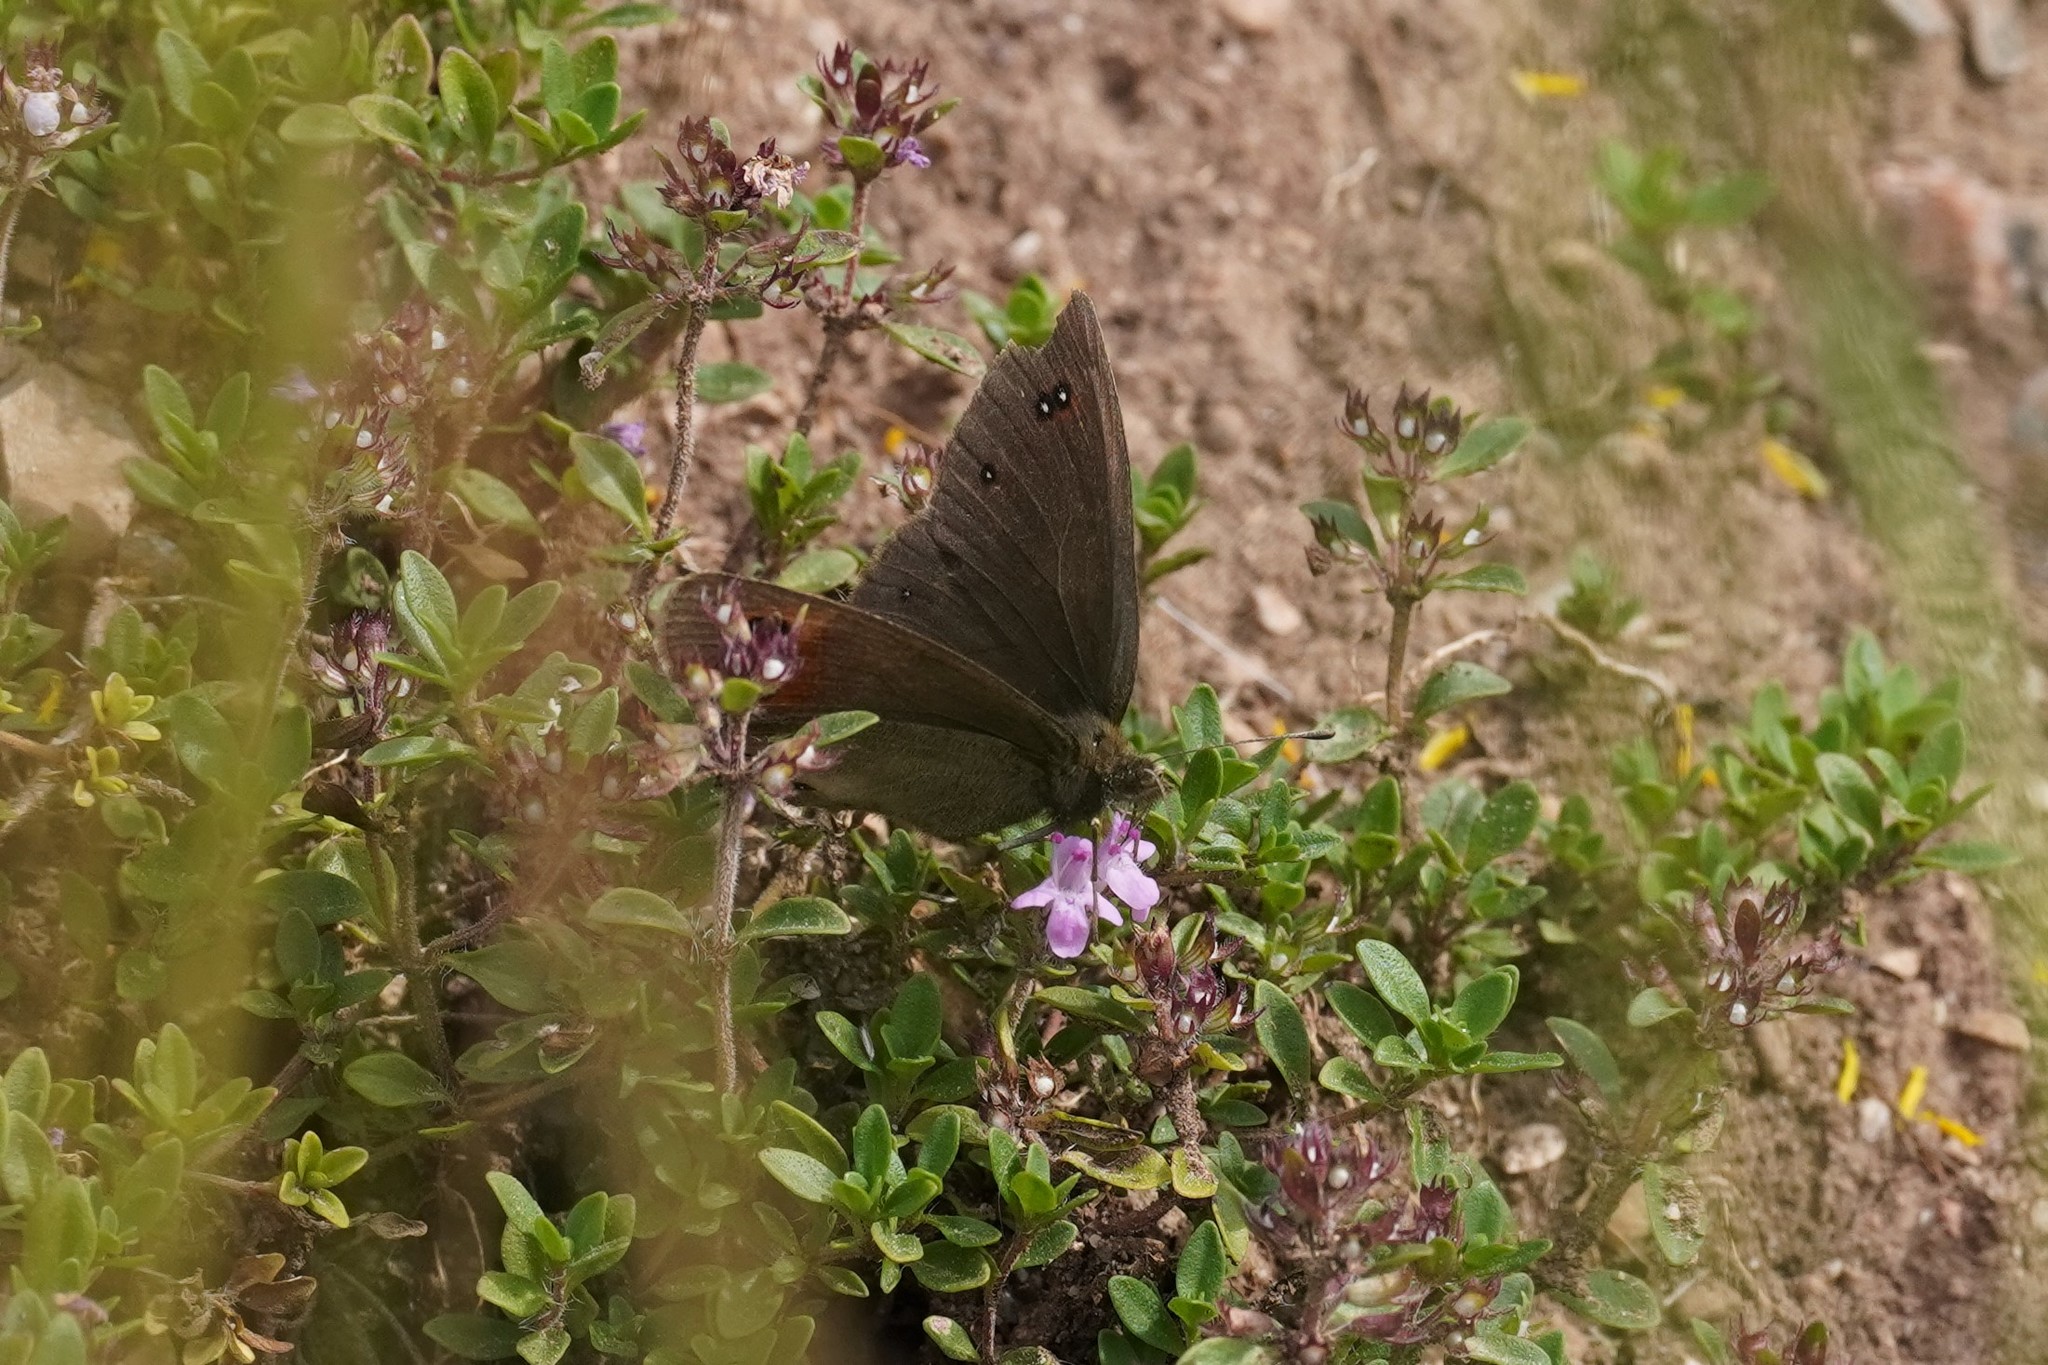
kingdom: Animalia
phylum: Arthropoda
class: Insecta
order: Lepidoptera
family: Nymphalidae
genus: Erebia
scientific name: Erebia meolans
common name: Piedmont ringlet
